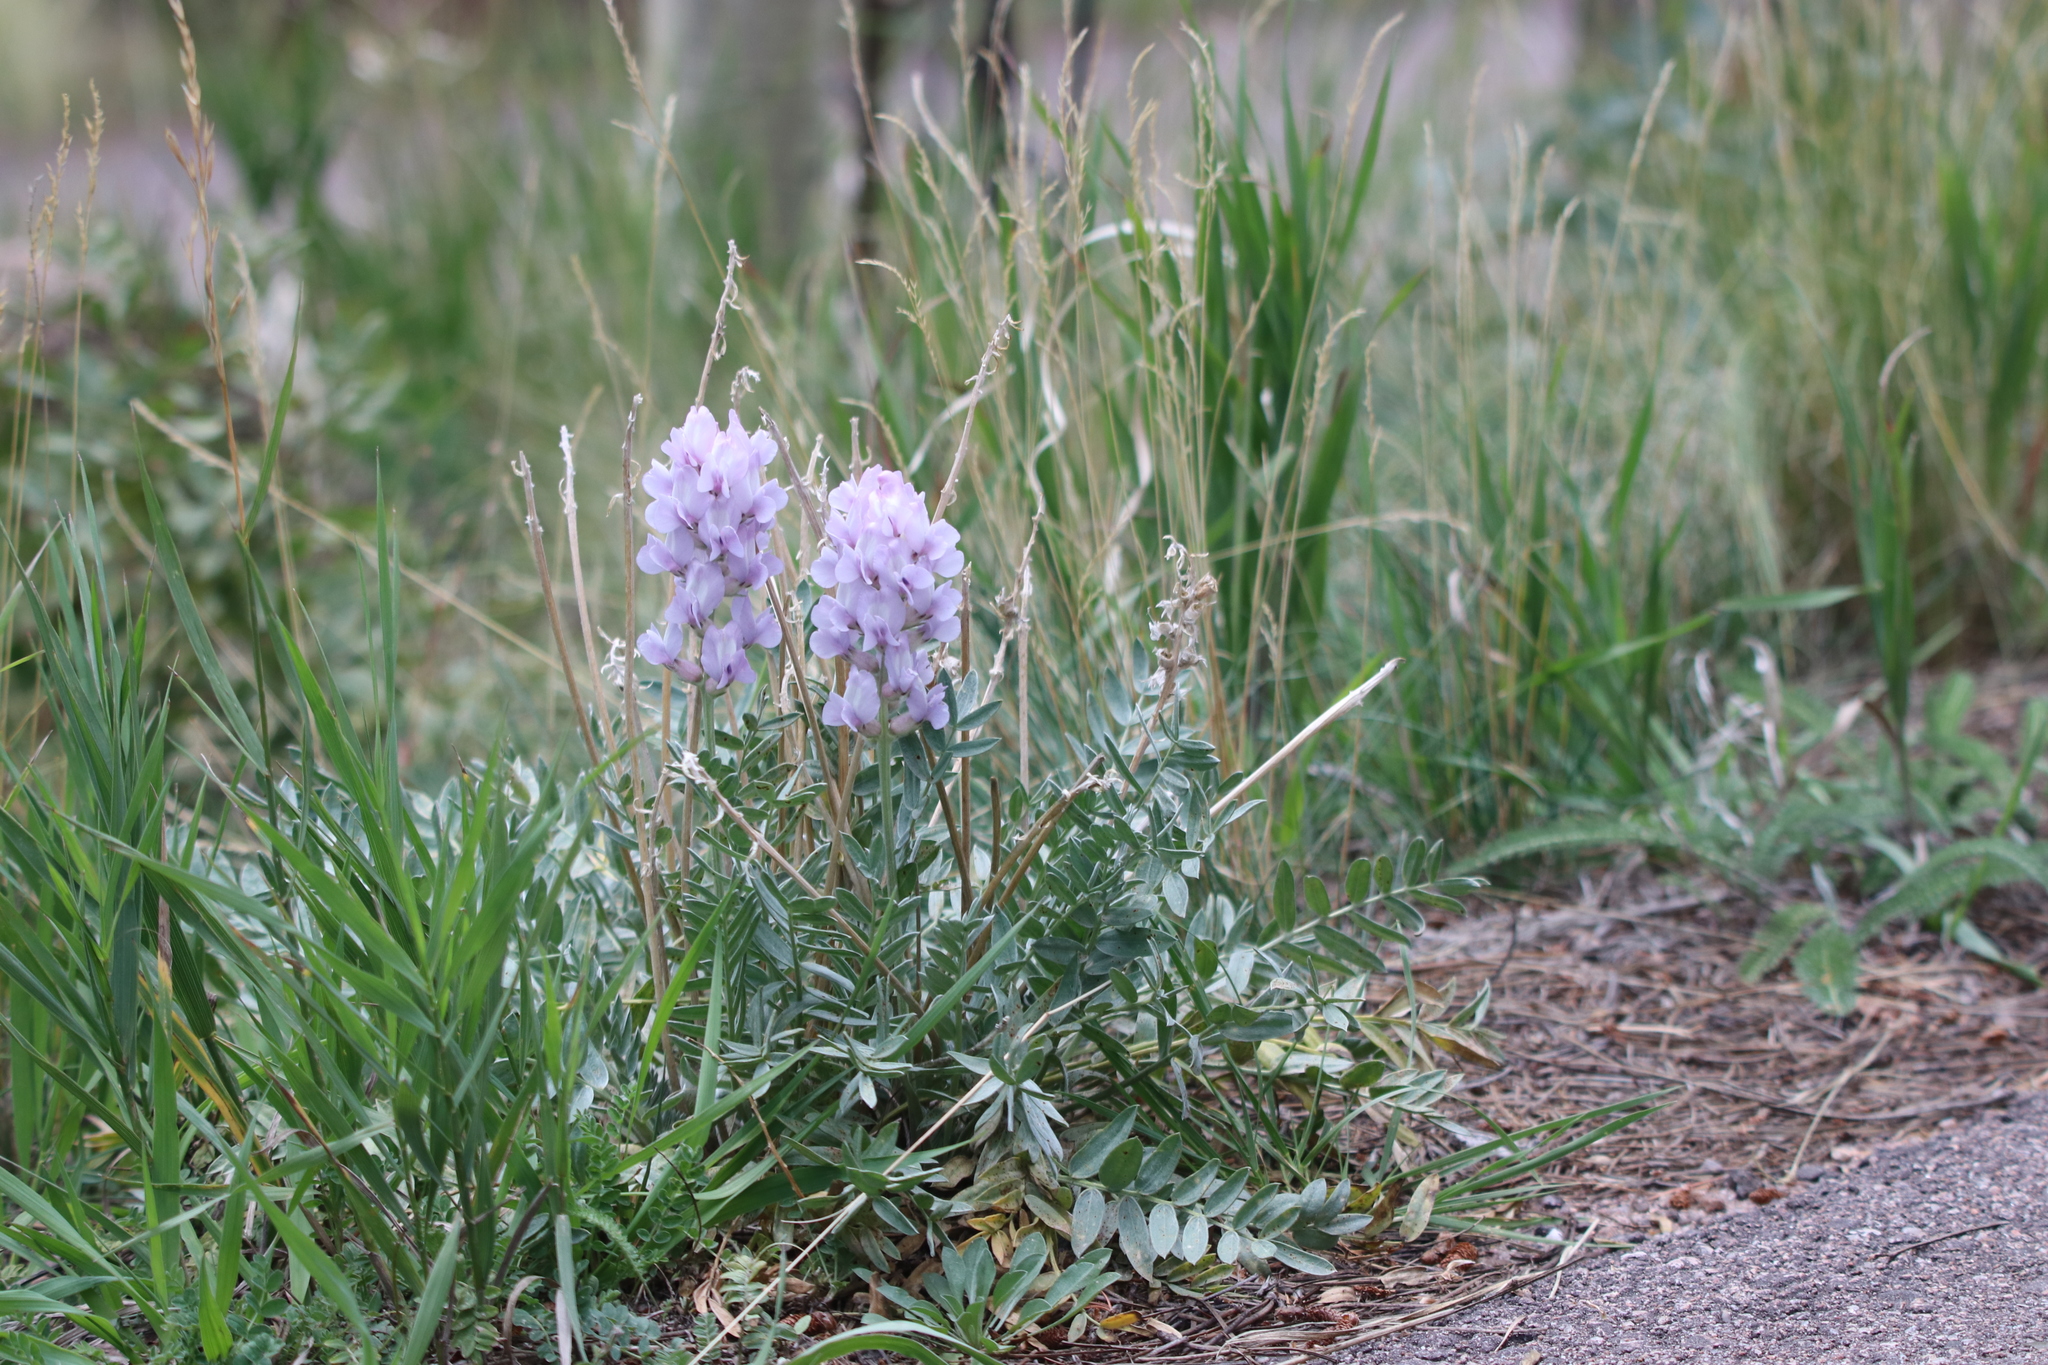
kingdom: Plantae
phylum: Tracheophyta
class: Magnoliopsida
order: Fabales
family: Fabaceae
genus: Oxytropis
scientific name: Oxytropis sericea
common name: Silky locoweed
